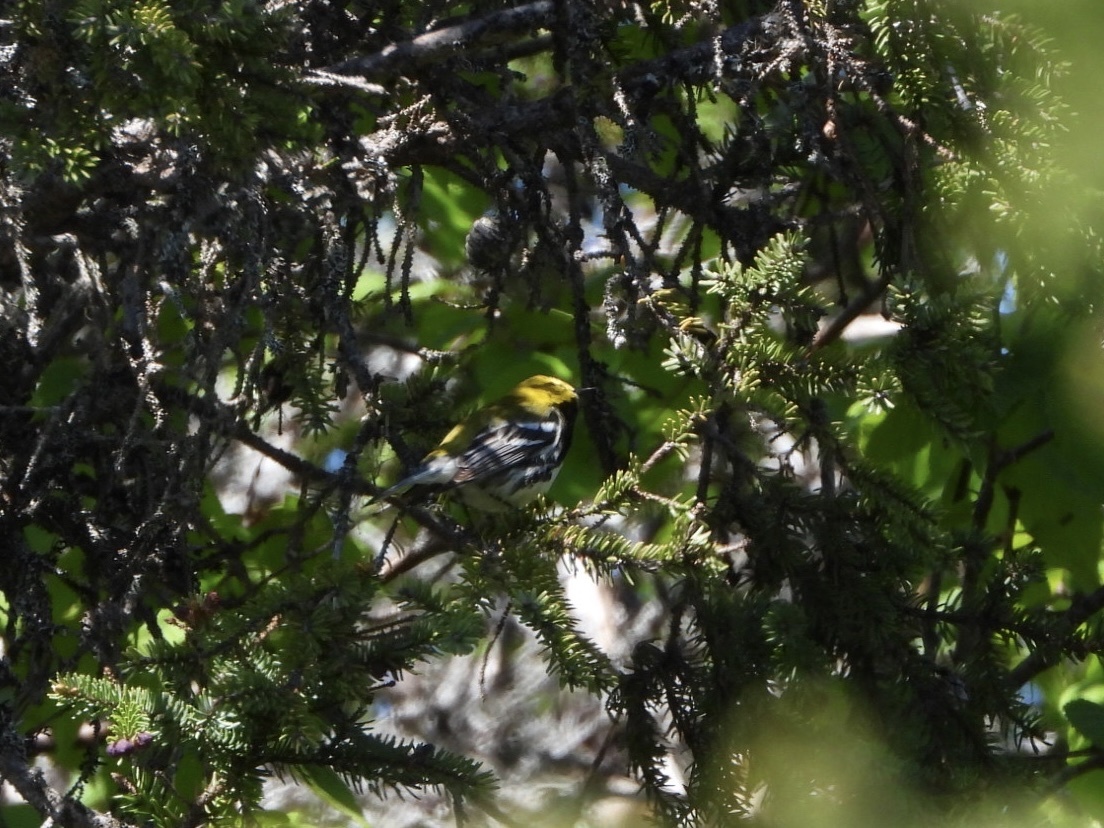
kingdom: Animalia
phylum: Chordata
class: Aves
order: Passeriformes
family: Parulidae
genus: Setophaga
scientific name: Setophaga virens
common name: Black-throated green warbler
